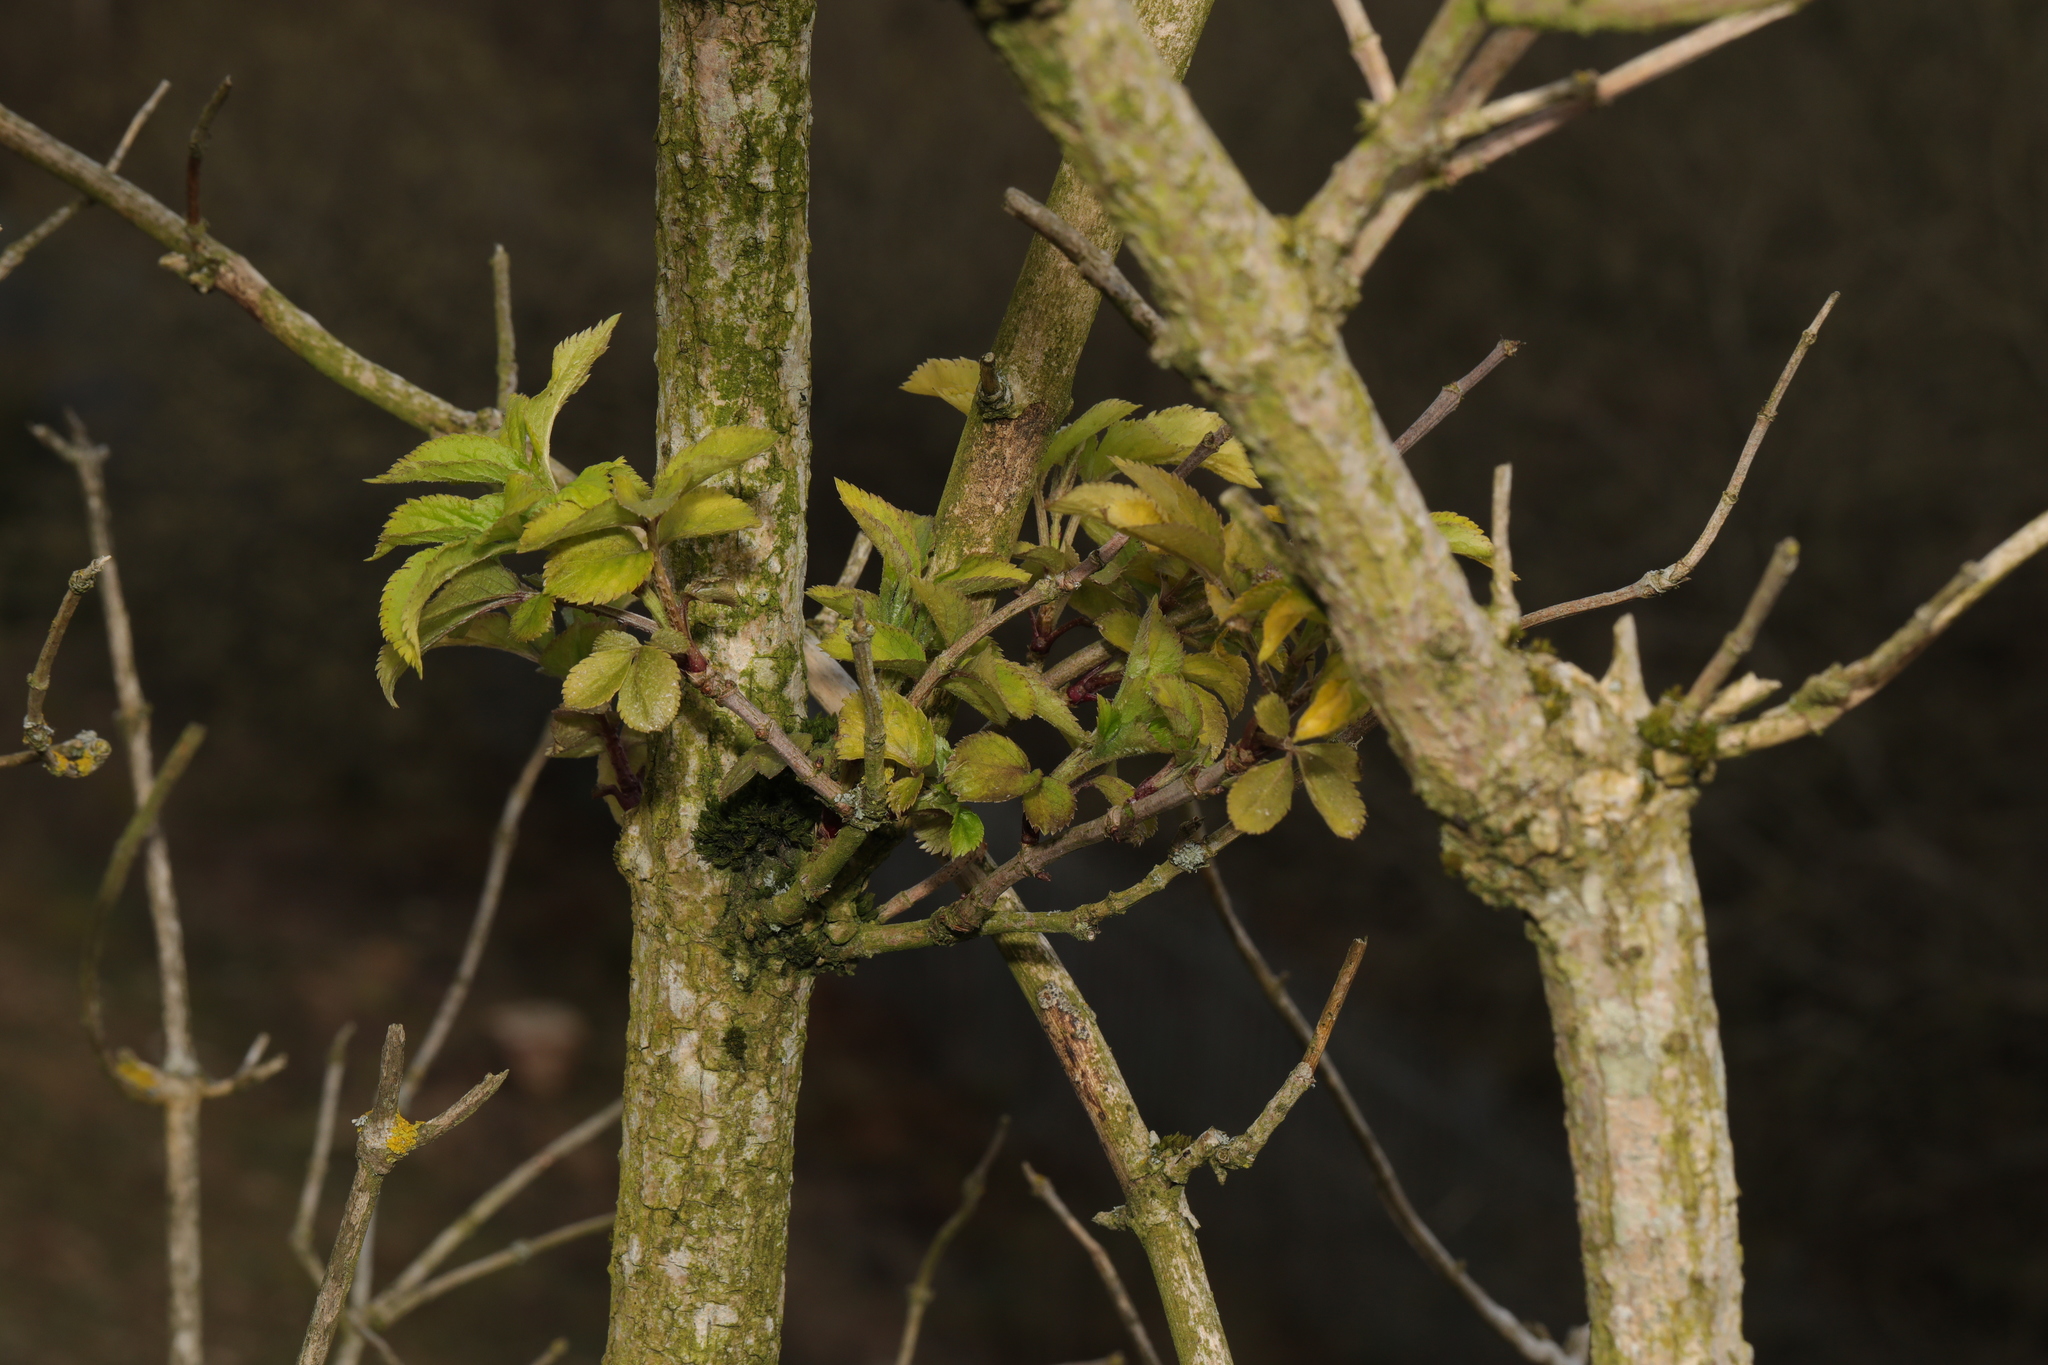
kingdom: Plantae
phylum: Tracheophyta
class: Magnoliopsida
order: Dipsacales
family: Viburnaceae
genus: Sambucus
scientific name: Sambucus nigra
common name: Elder
